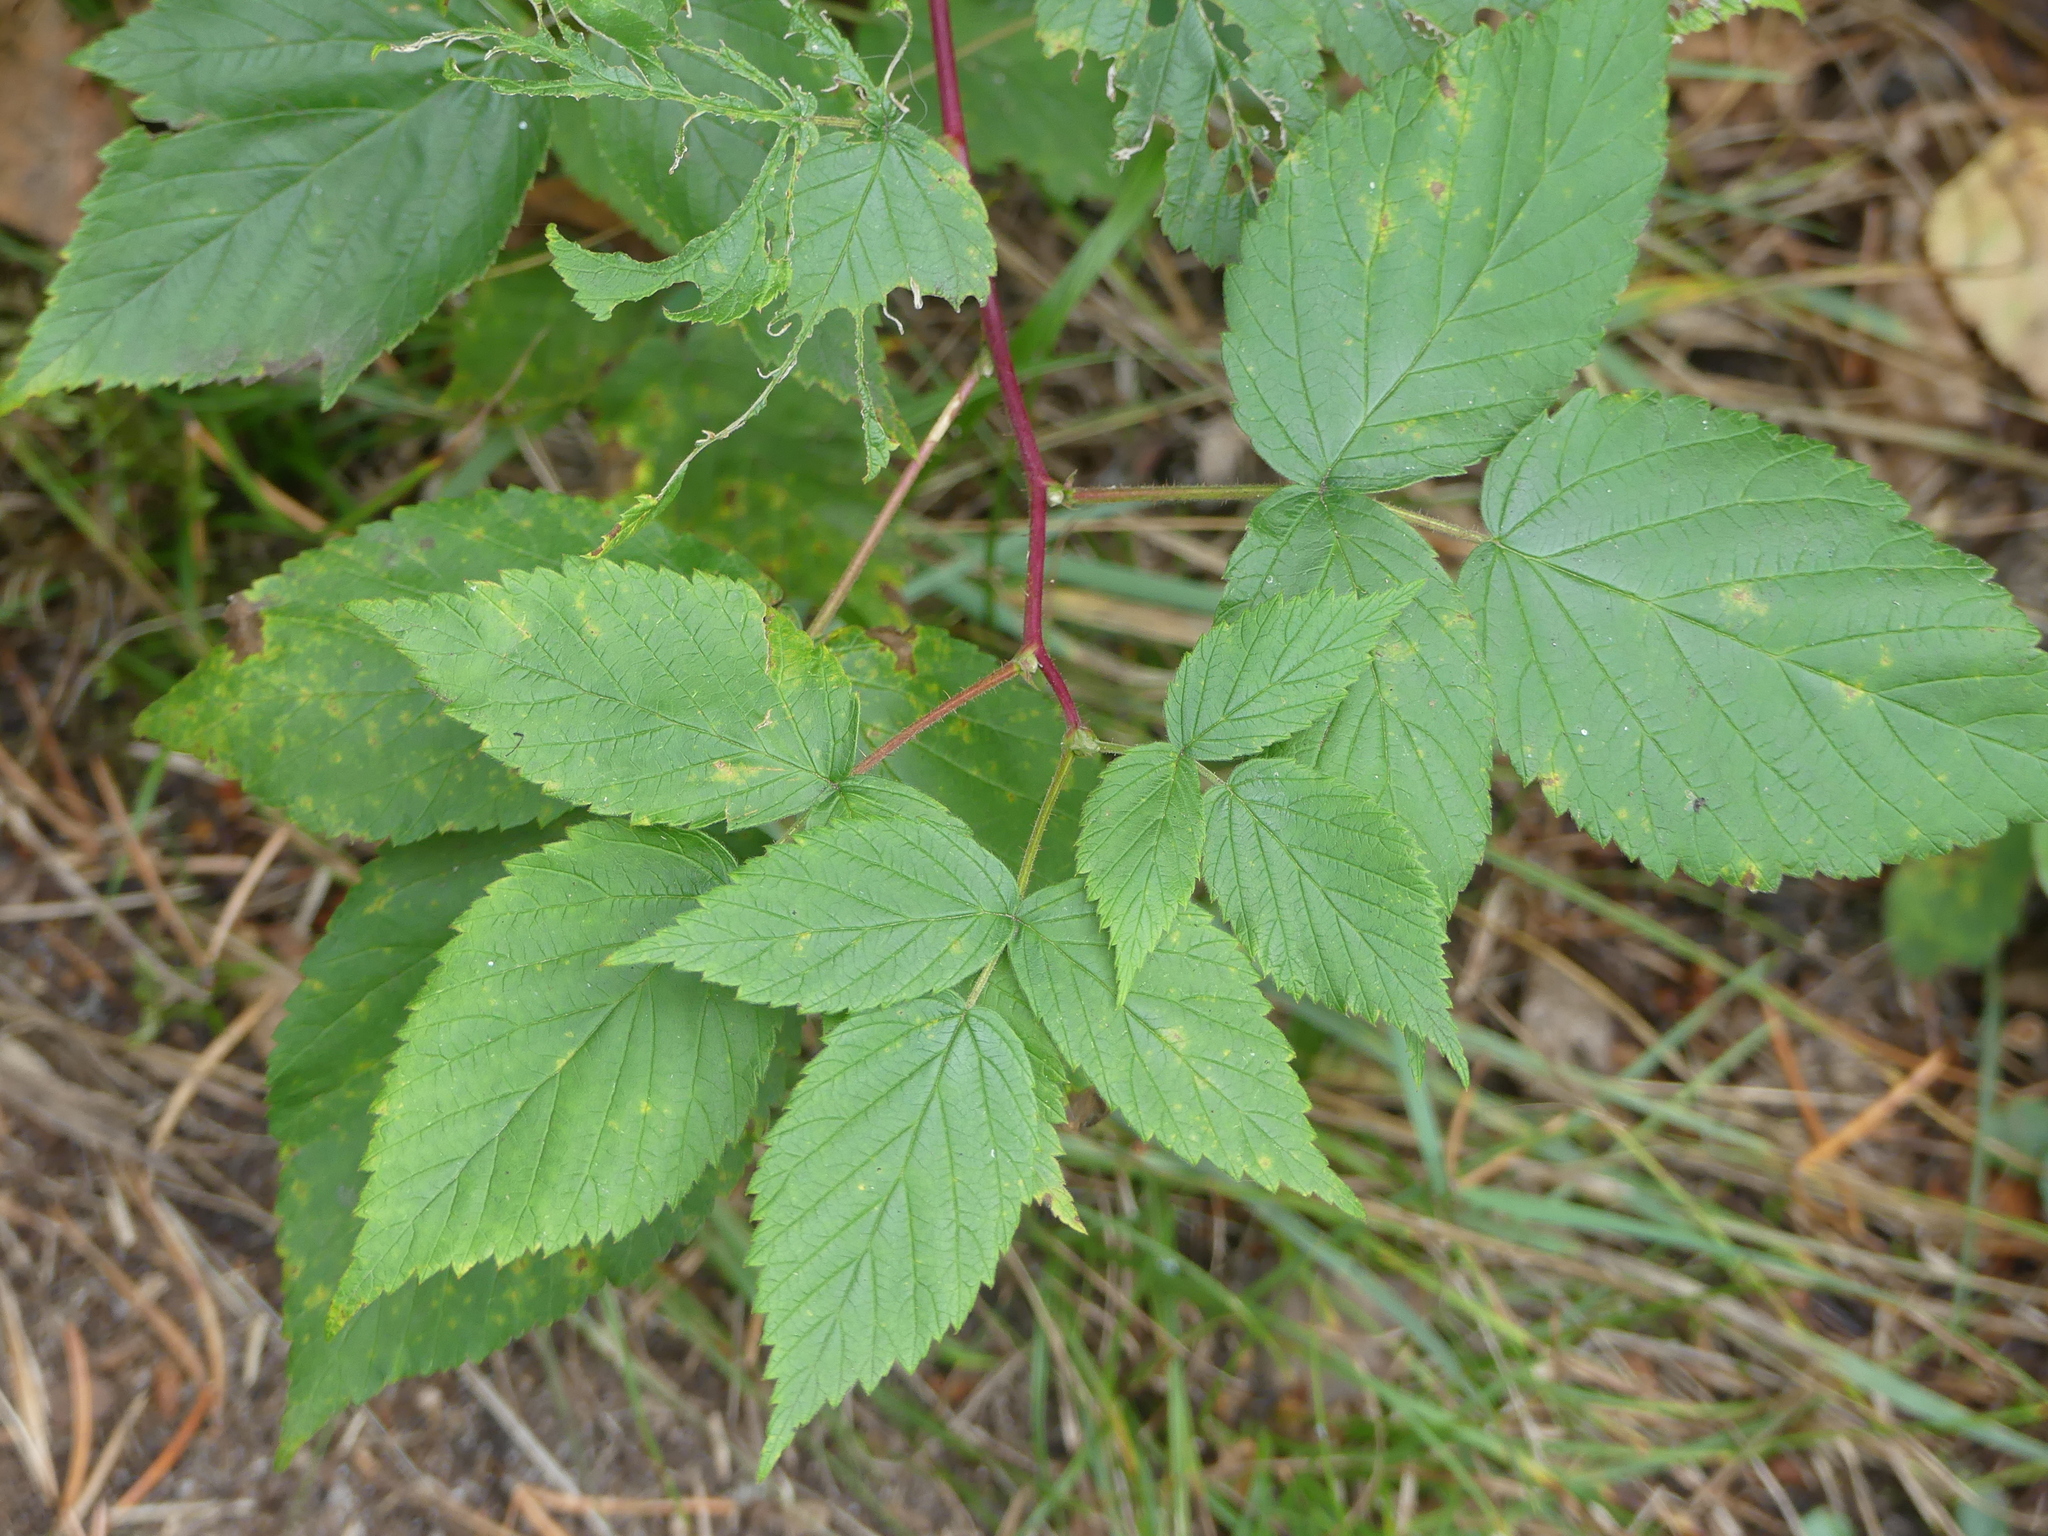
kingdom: Plantae
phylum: Tracheophyta
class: Magnoliopsida
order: Rosales
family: Rosaceae
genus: Rubus
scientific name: Rubus idaeus
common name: Raspberry
